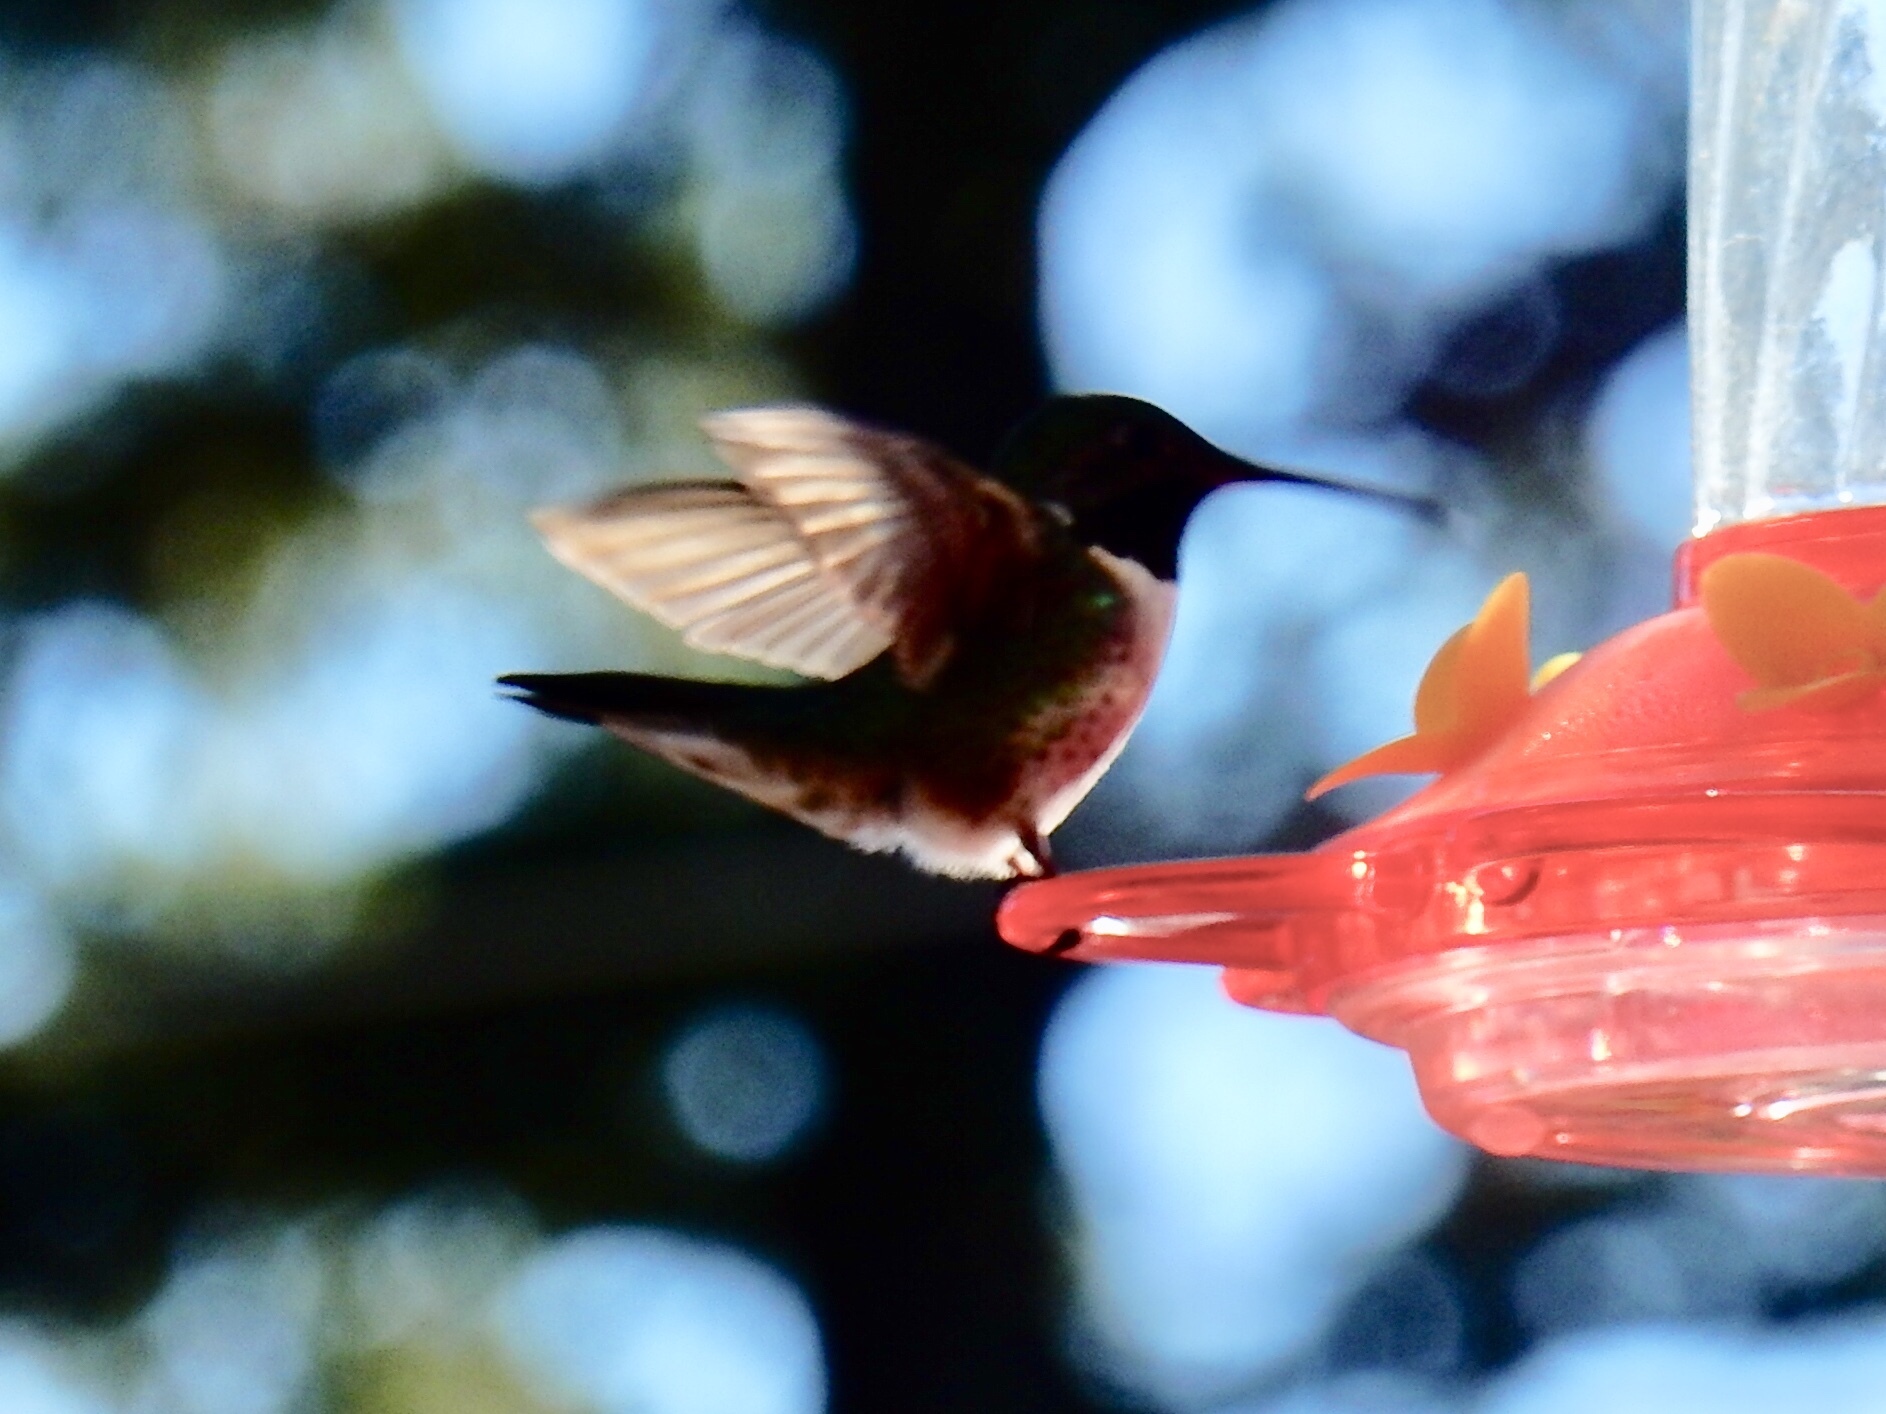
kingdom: Animalia
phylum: Chordata
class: Aves
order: Apodiformes
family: Trochilidae
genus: Selasphorus
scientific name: Selasphorus platycercus
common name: Broad-tailed hummingbird
